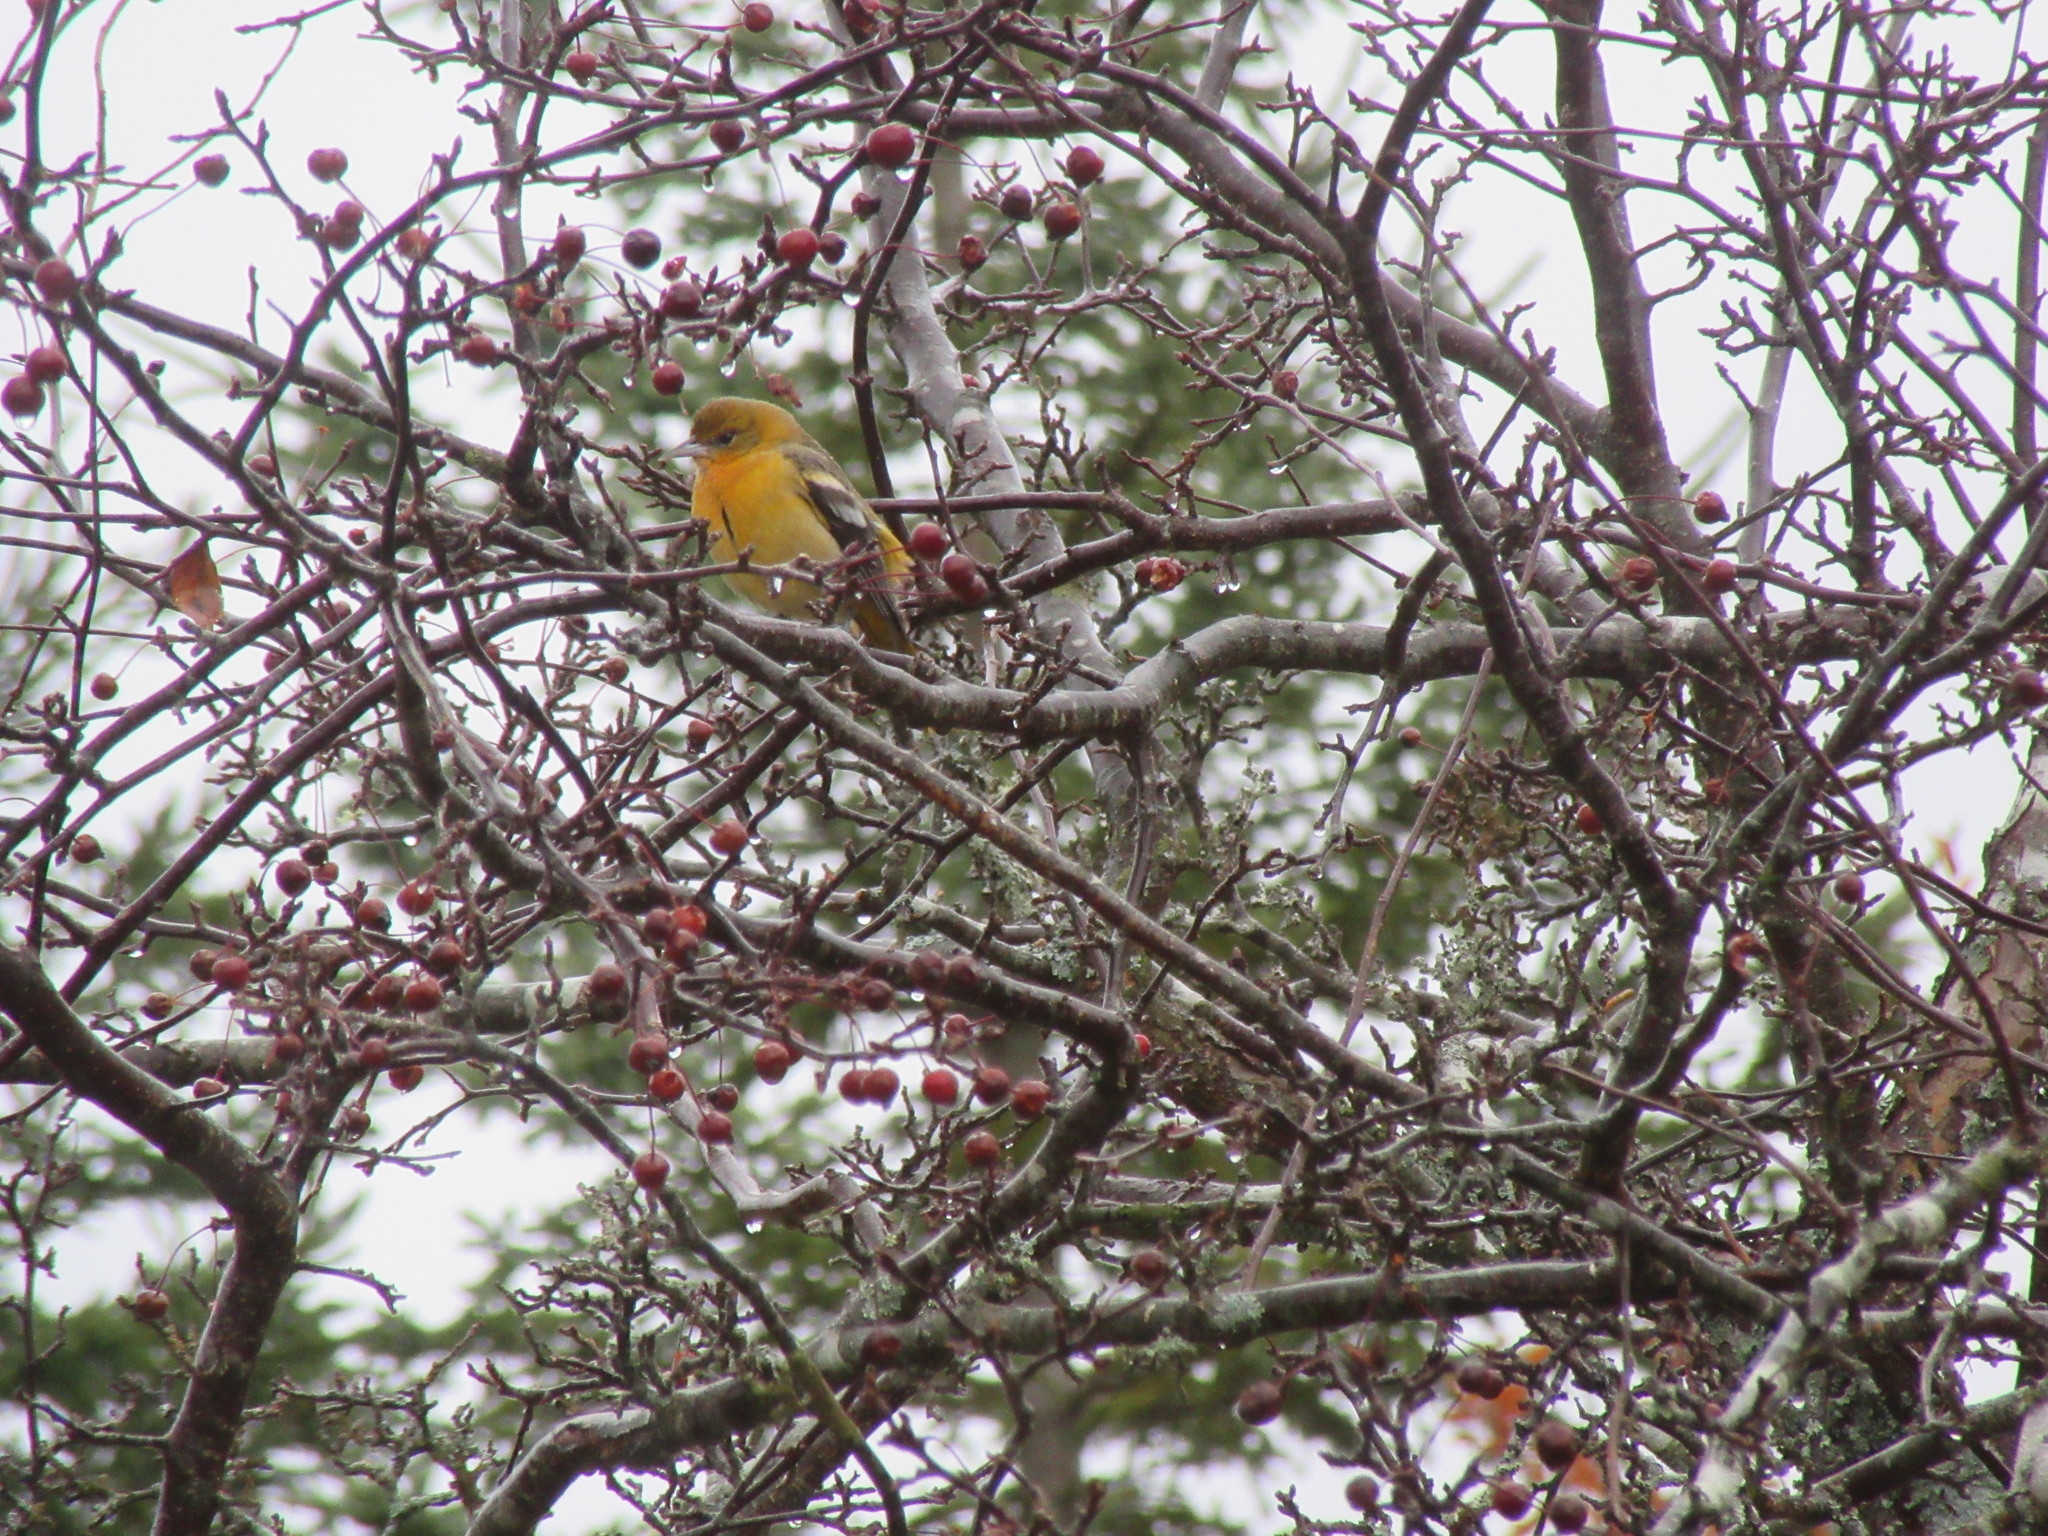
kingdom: Animalia
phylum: Chordata
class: Aves
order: Passeriformes
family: Icteridae
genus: Icterus
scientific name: Icterus galbula
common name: Baltimore oriole
